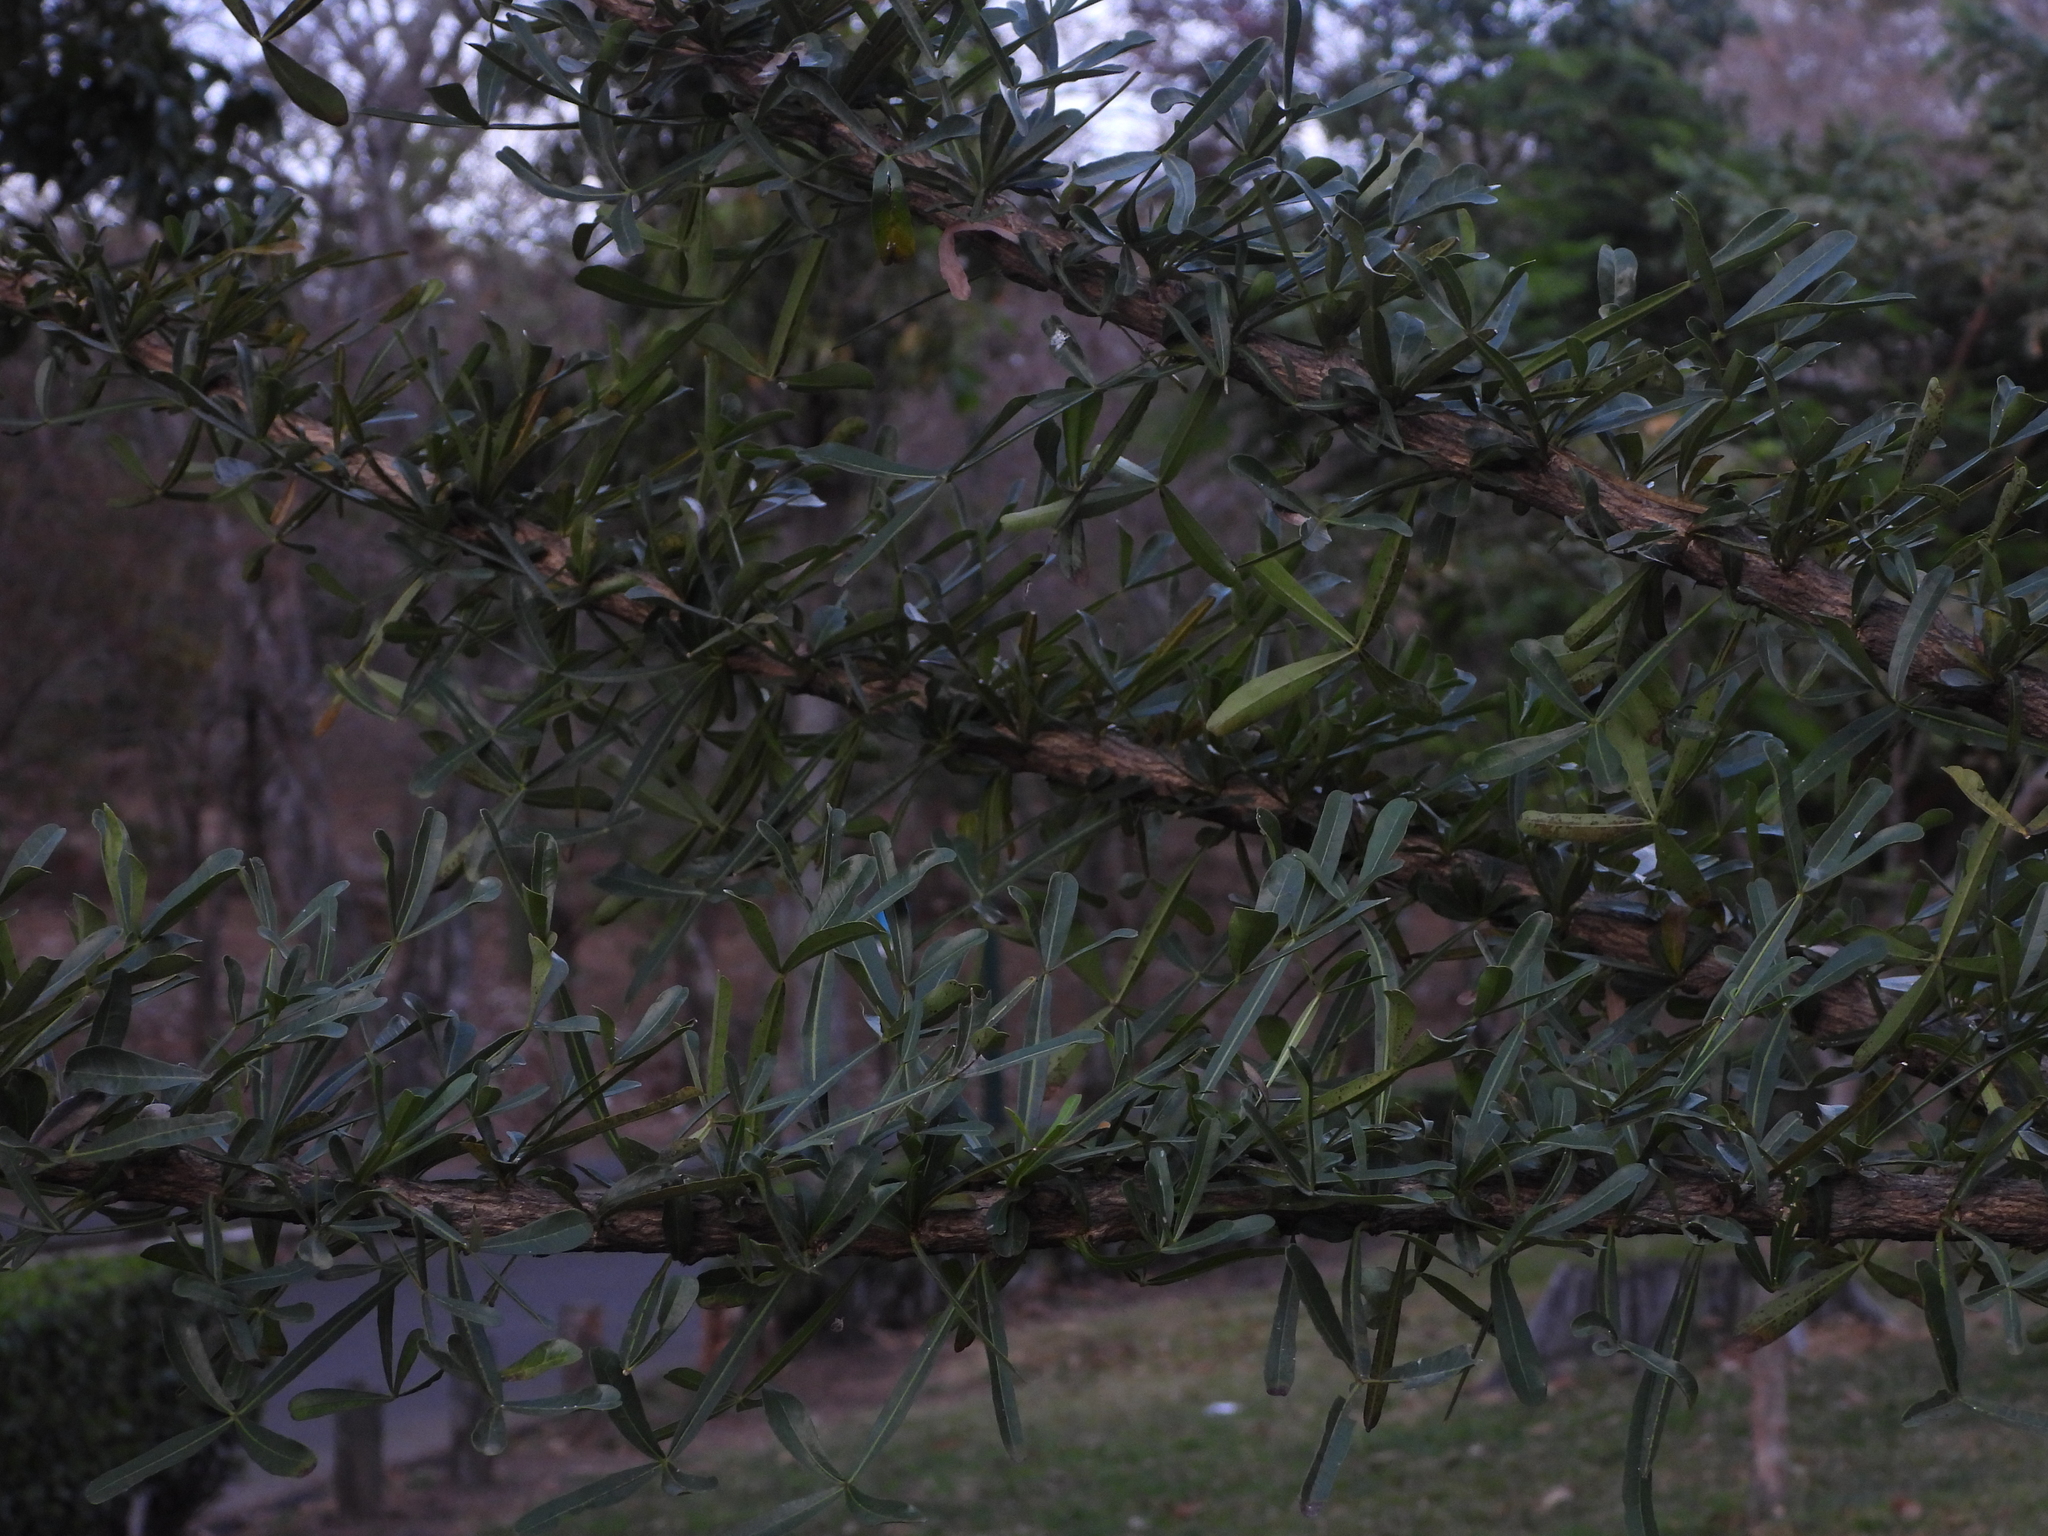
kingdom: Plantae
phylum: Tracheophyta
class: Magnoliopsida
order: Lamiales
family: Bignoniaceae
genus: Crescentia
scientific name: Crescentia alata
